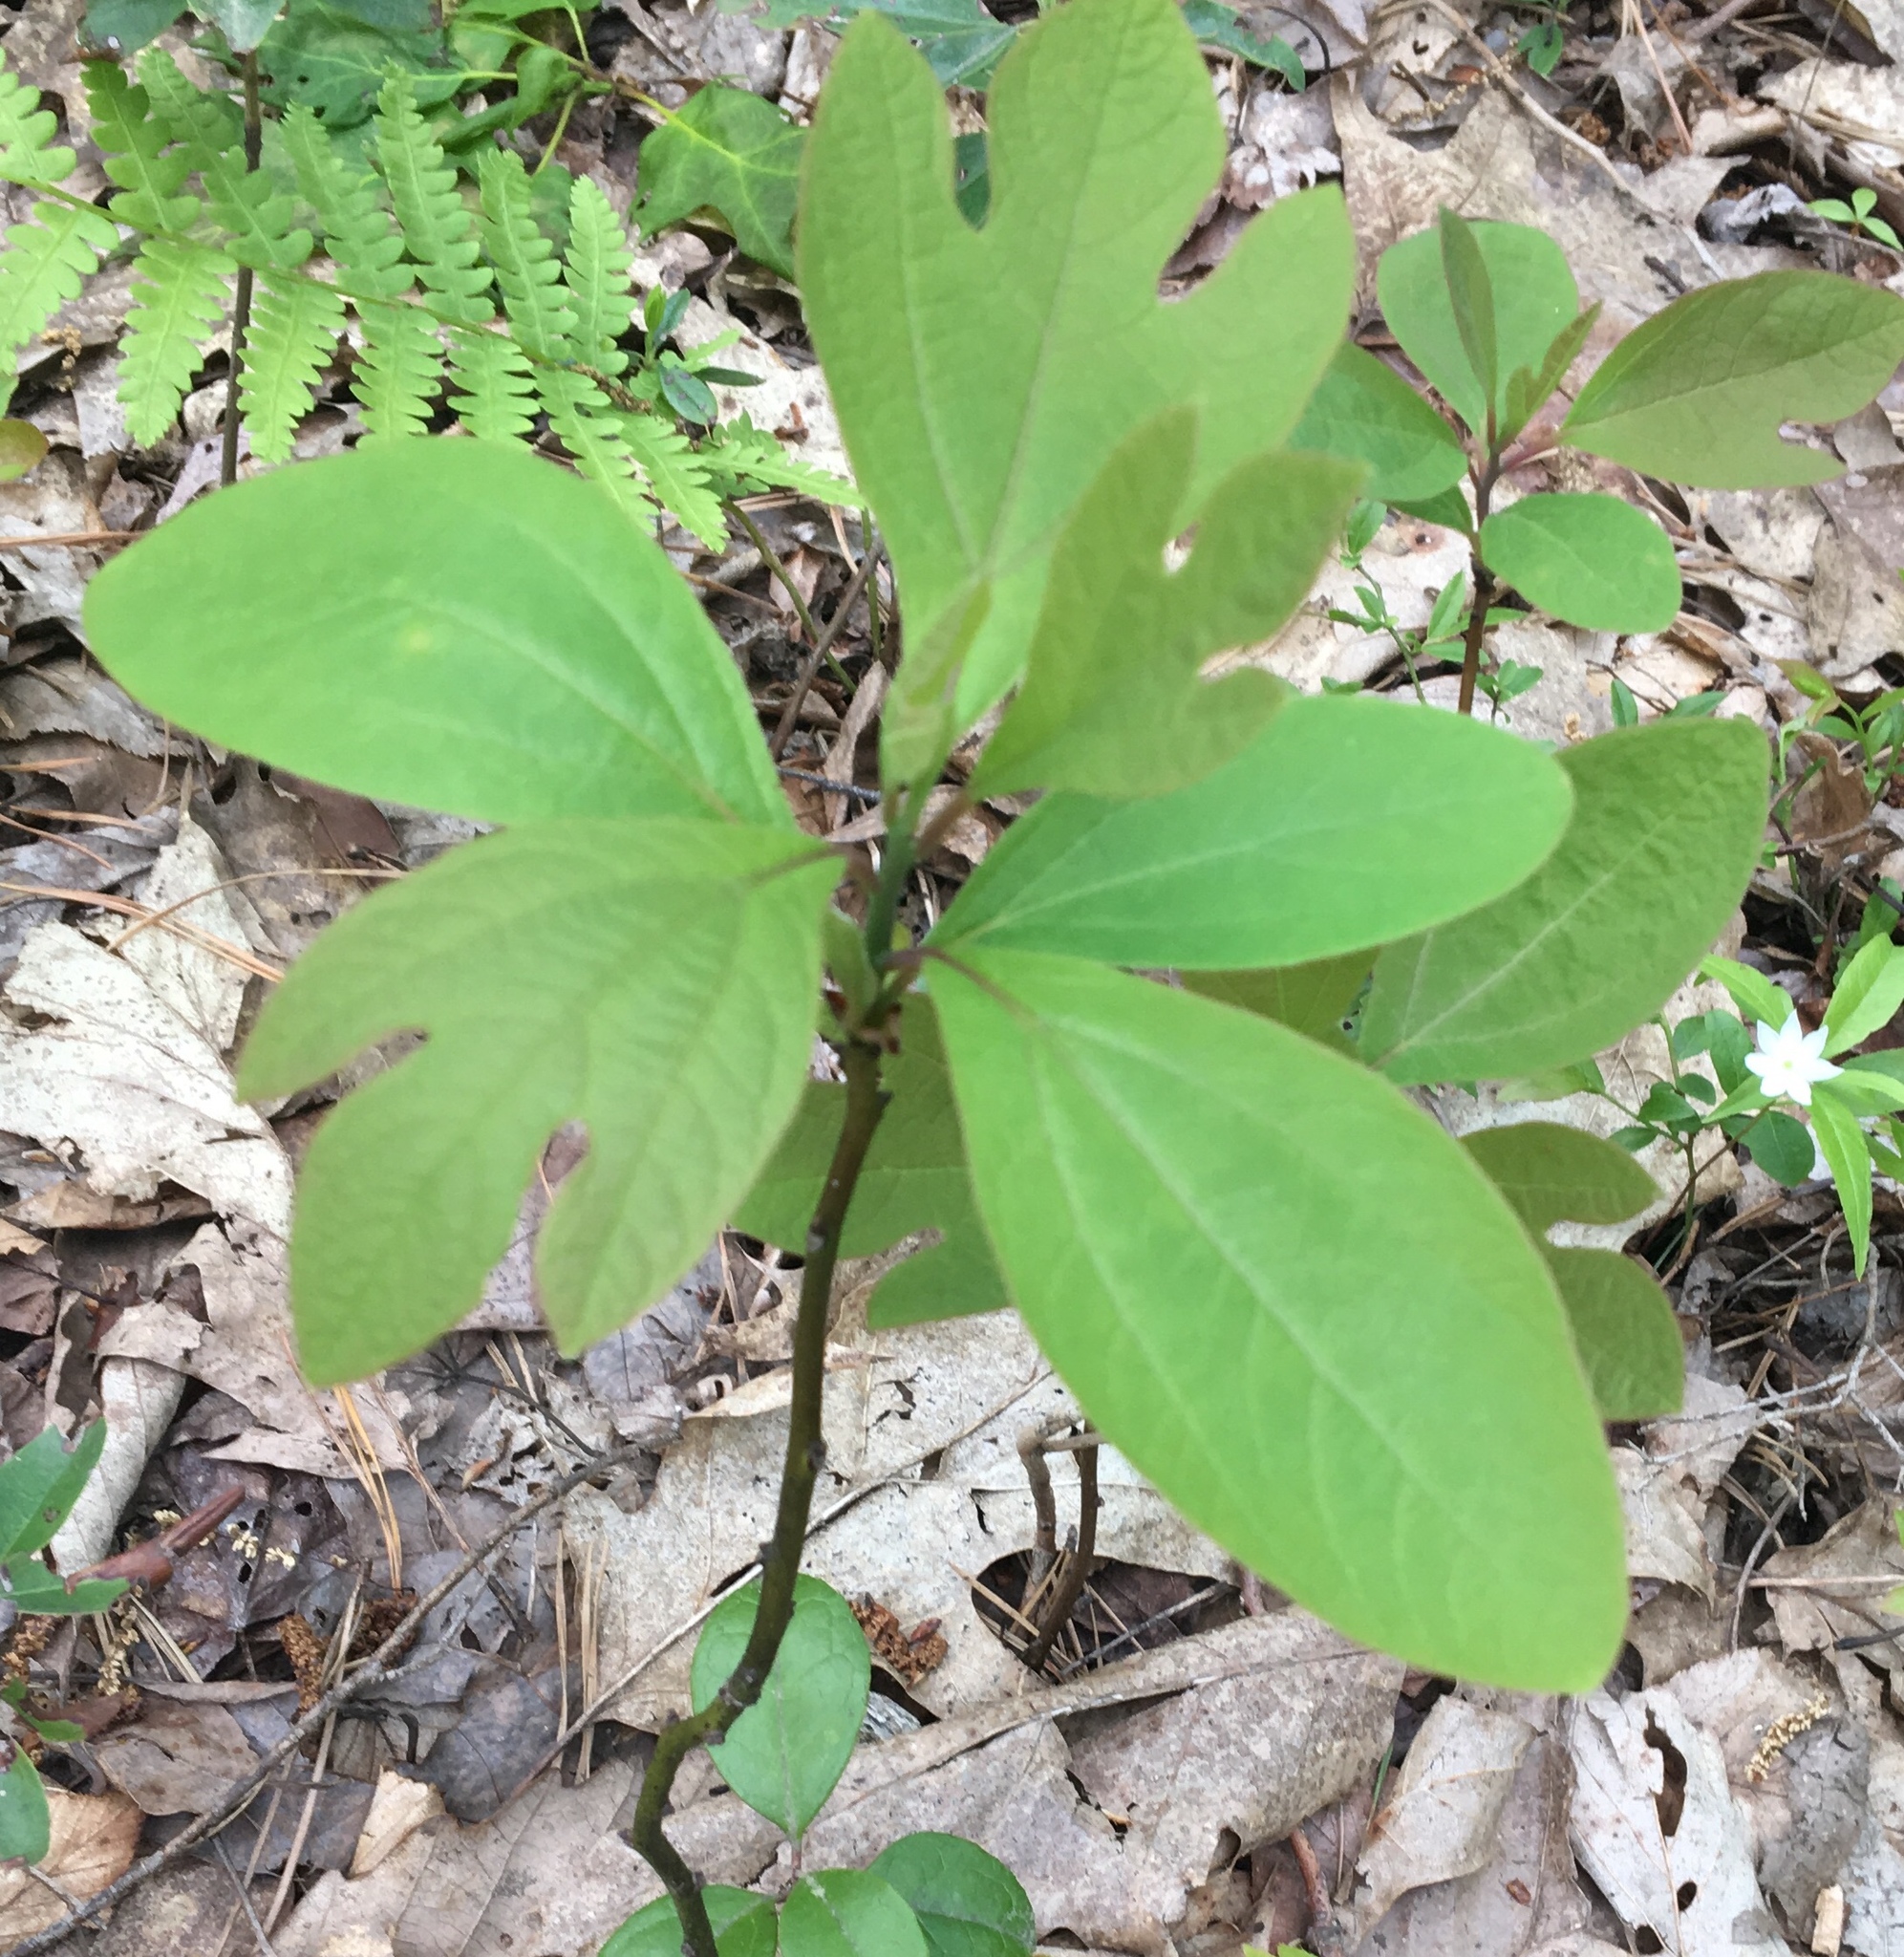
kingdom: Plantae
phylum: Tracheophyta
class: Magnoliopsida
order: Laurales
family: Lauraceae
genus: Sassafras
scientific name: Sassafras albidum
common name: Sassafras
